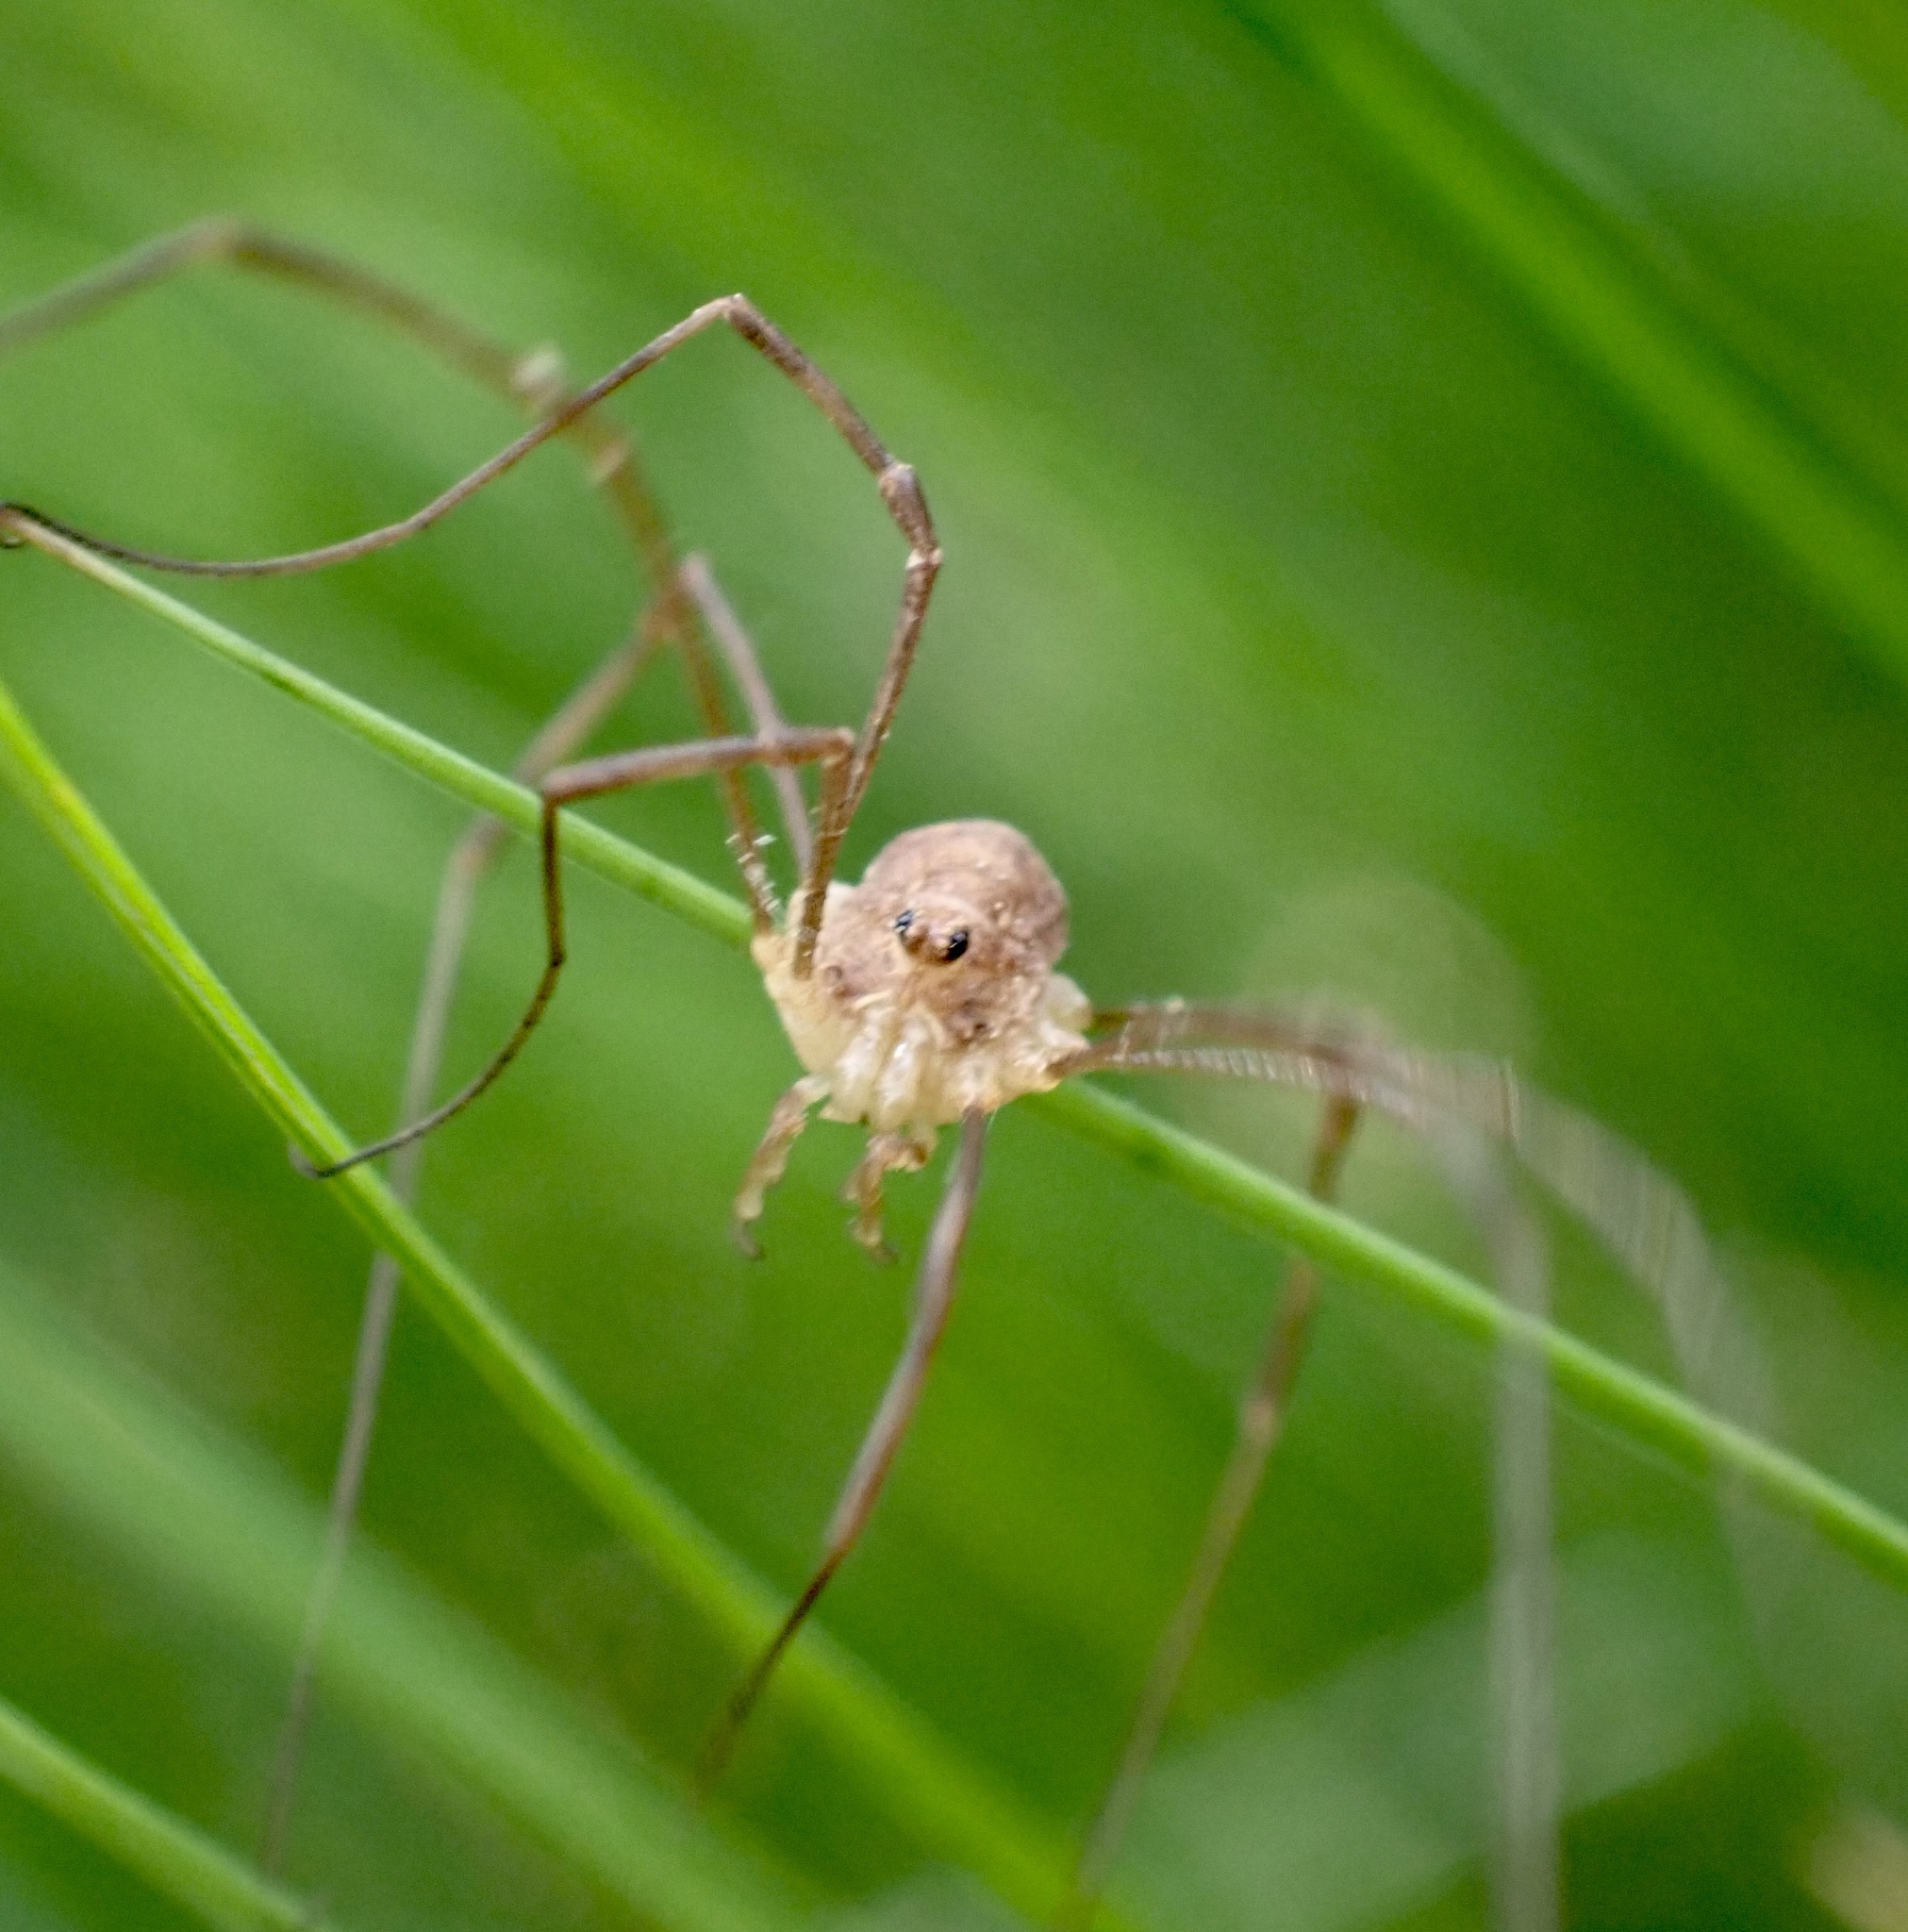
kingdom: Animalia
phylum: Arthropoda
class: Arachnida
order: Opiliones
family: Phalangiidae
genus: Rilaena
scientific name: Rilaena triangularis
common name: Spring harvestman
